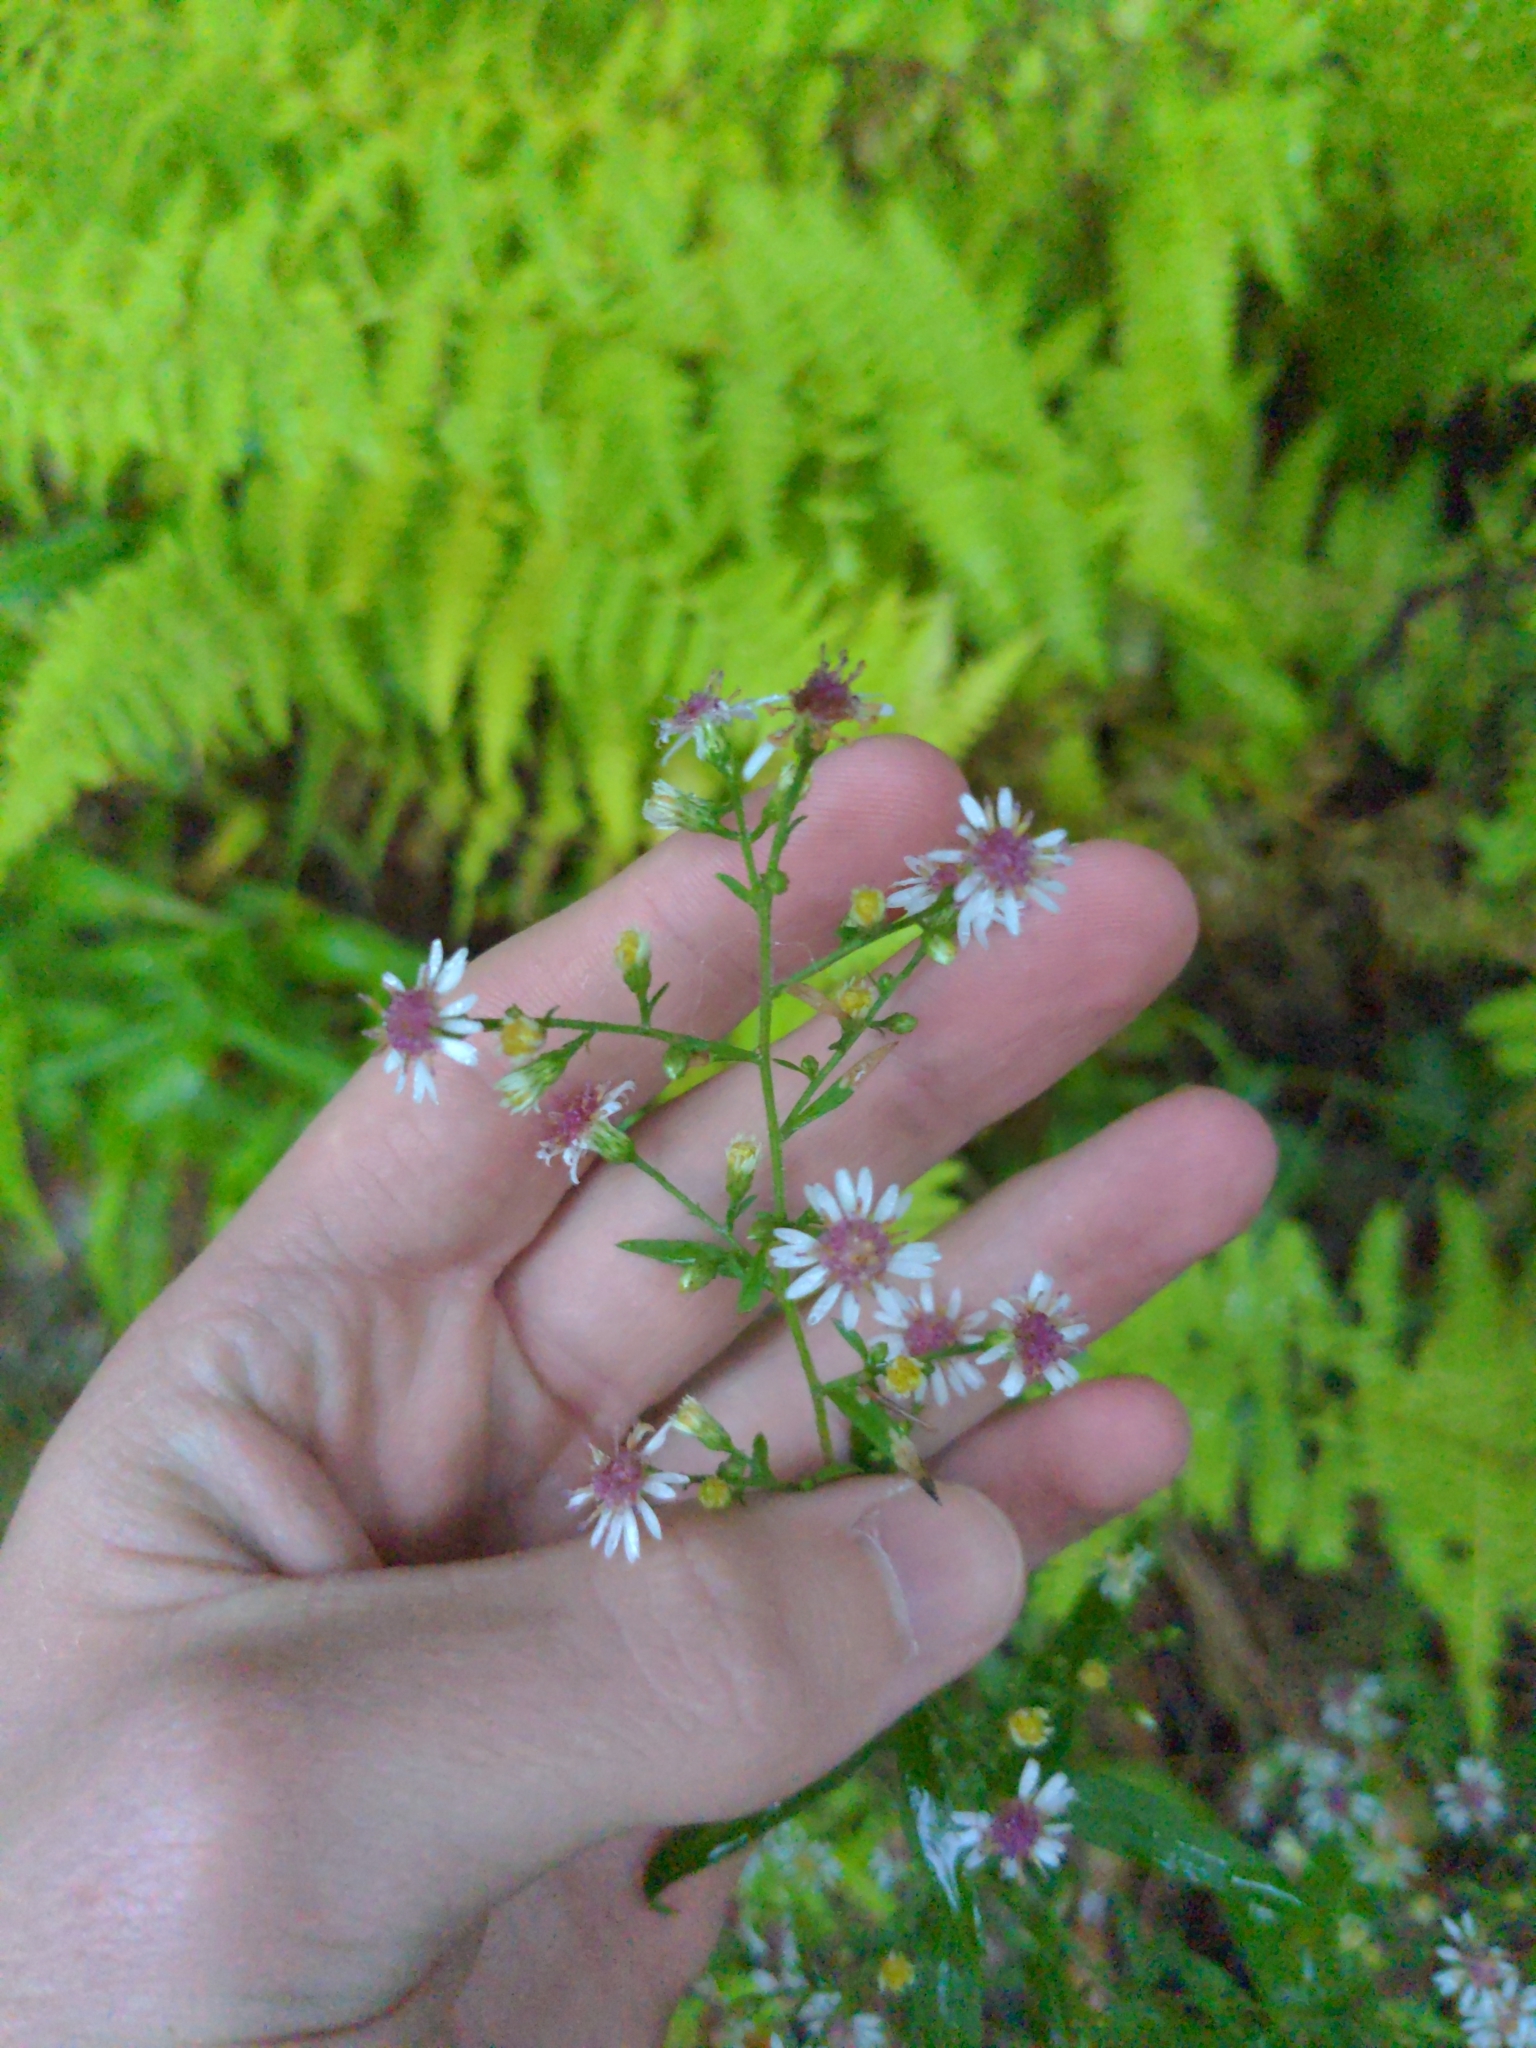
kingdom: Plantae
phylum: Tracheophyta
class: Magnoliopsida
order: Asterales
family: Asteraceae
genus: Symphyotrichum
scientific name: Symphyotrichum lateriflorum
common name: Calico aster
